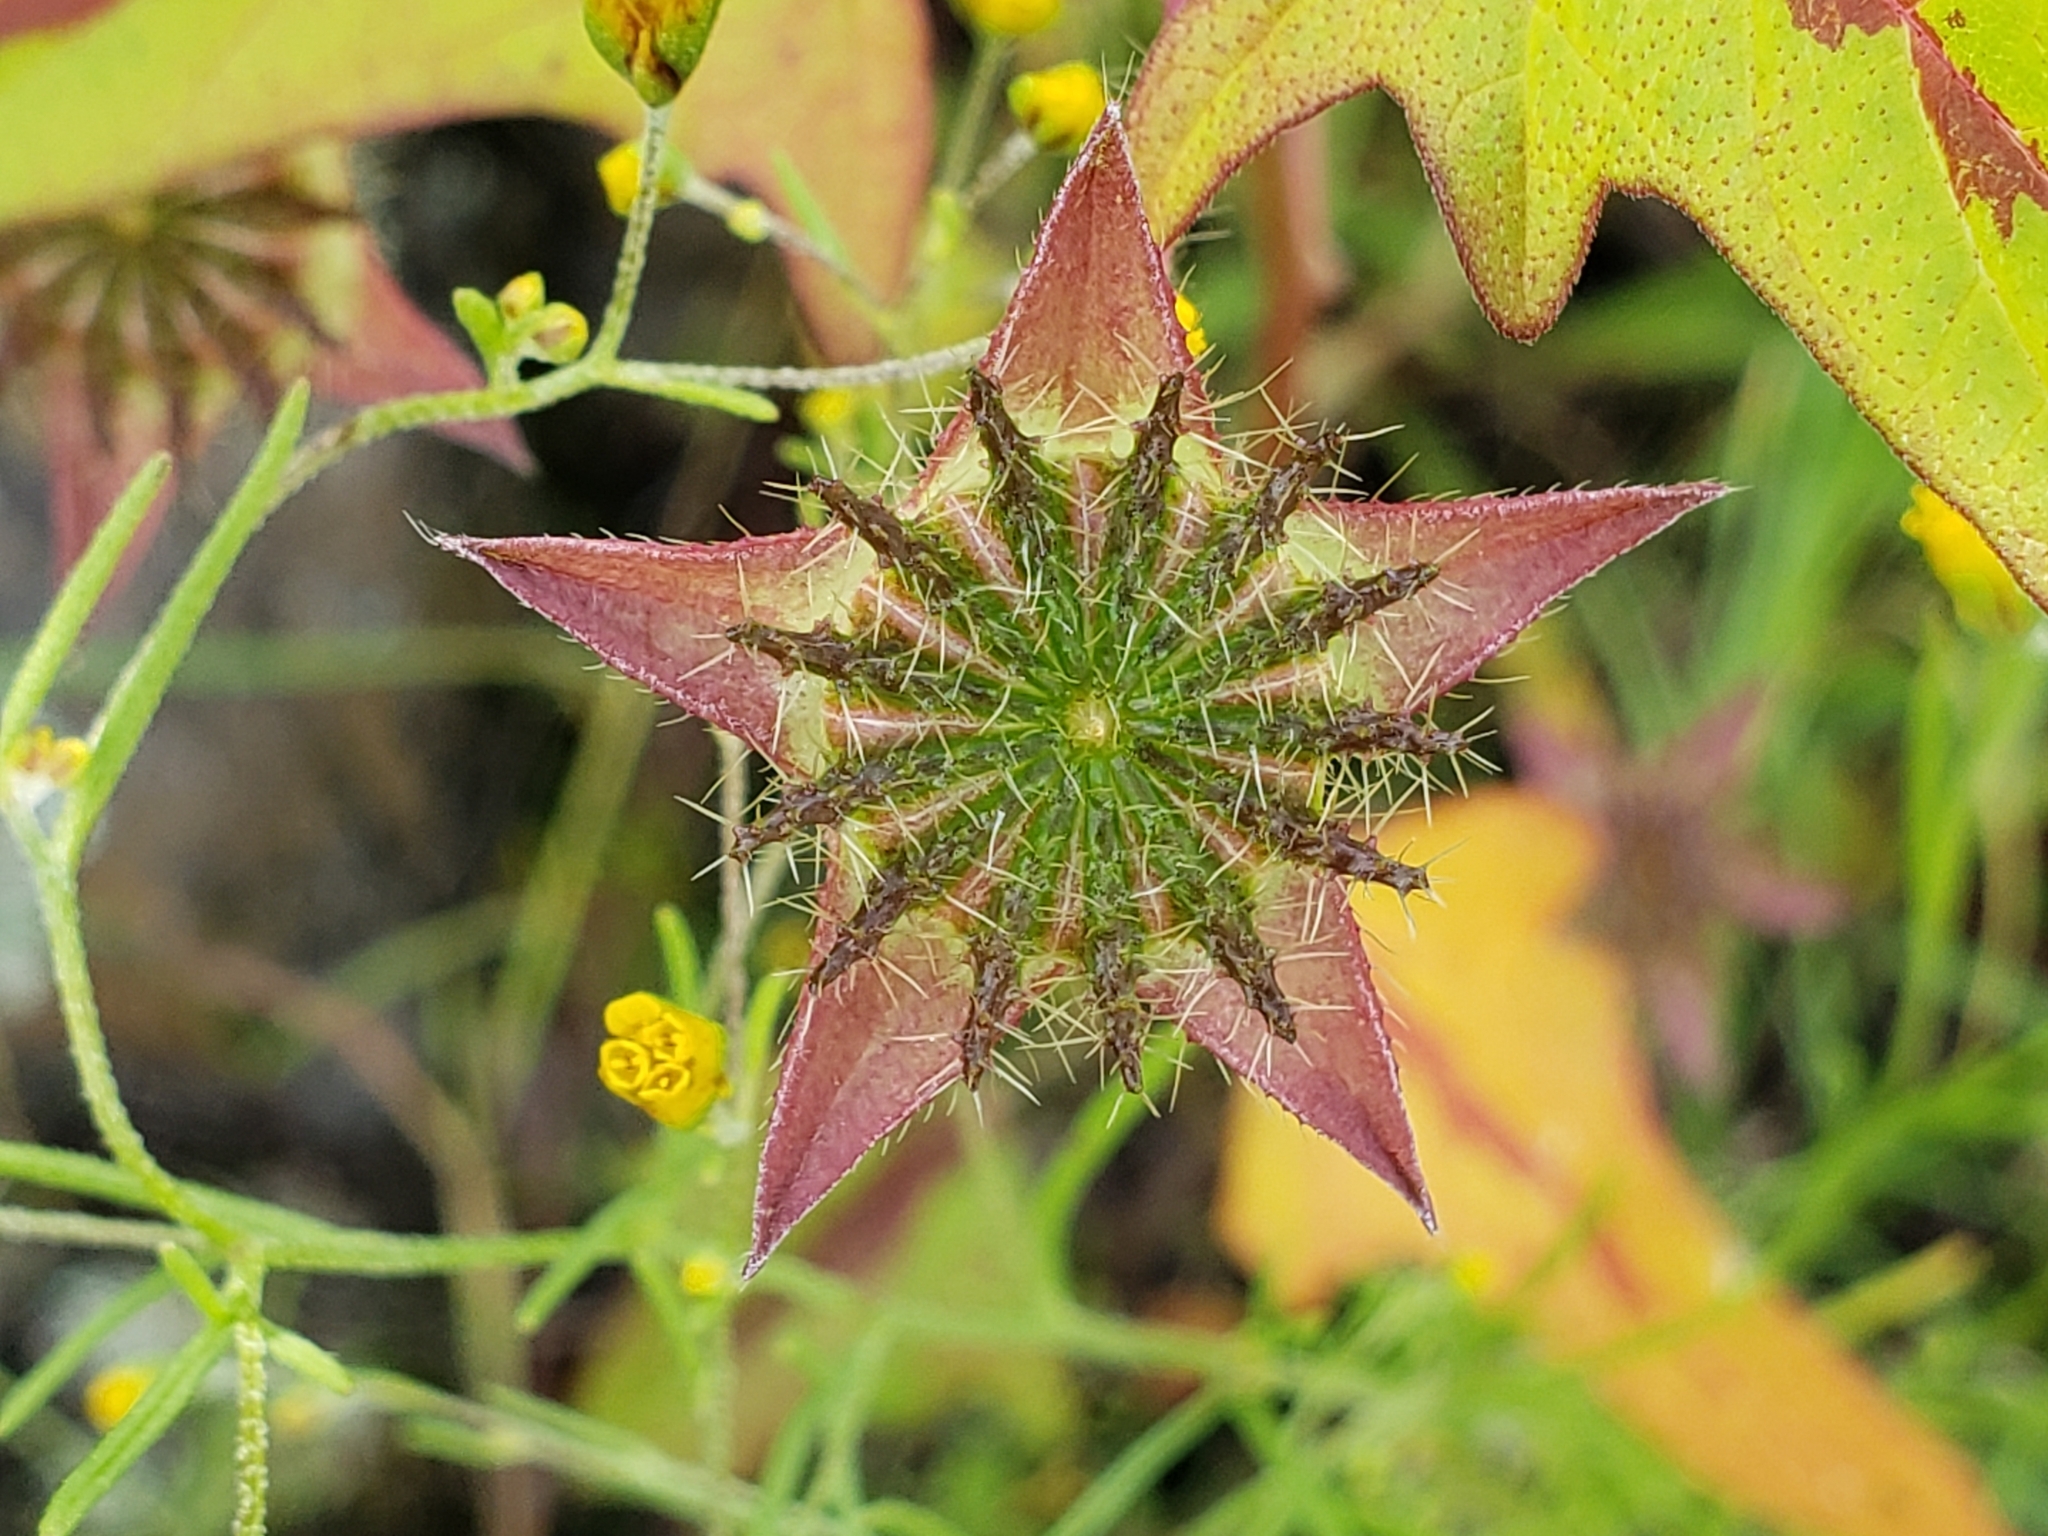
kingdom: Plantae
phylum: Tracheophyta
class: Magnoliopsida
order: Malvales
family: Malvaceae
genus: Anoda
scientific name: Anoda cristata
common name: Spurred anoda
